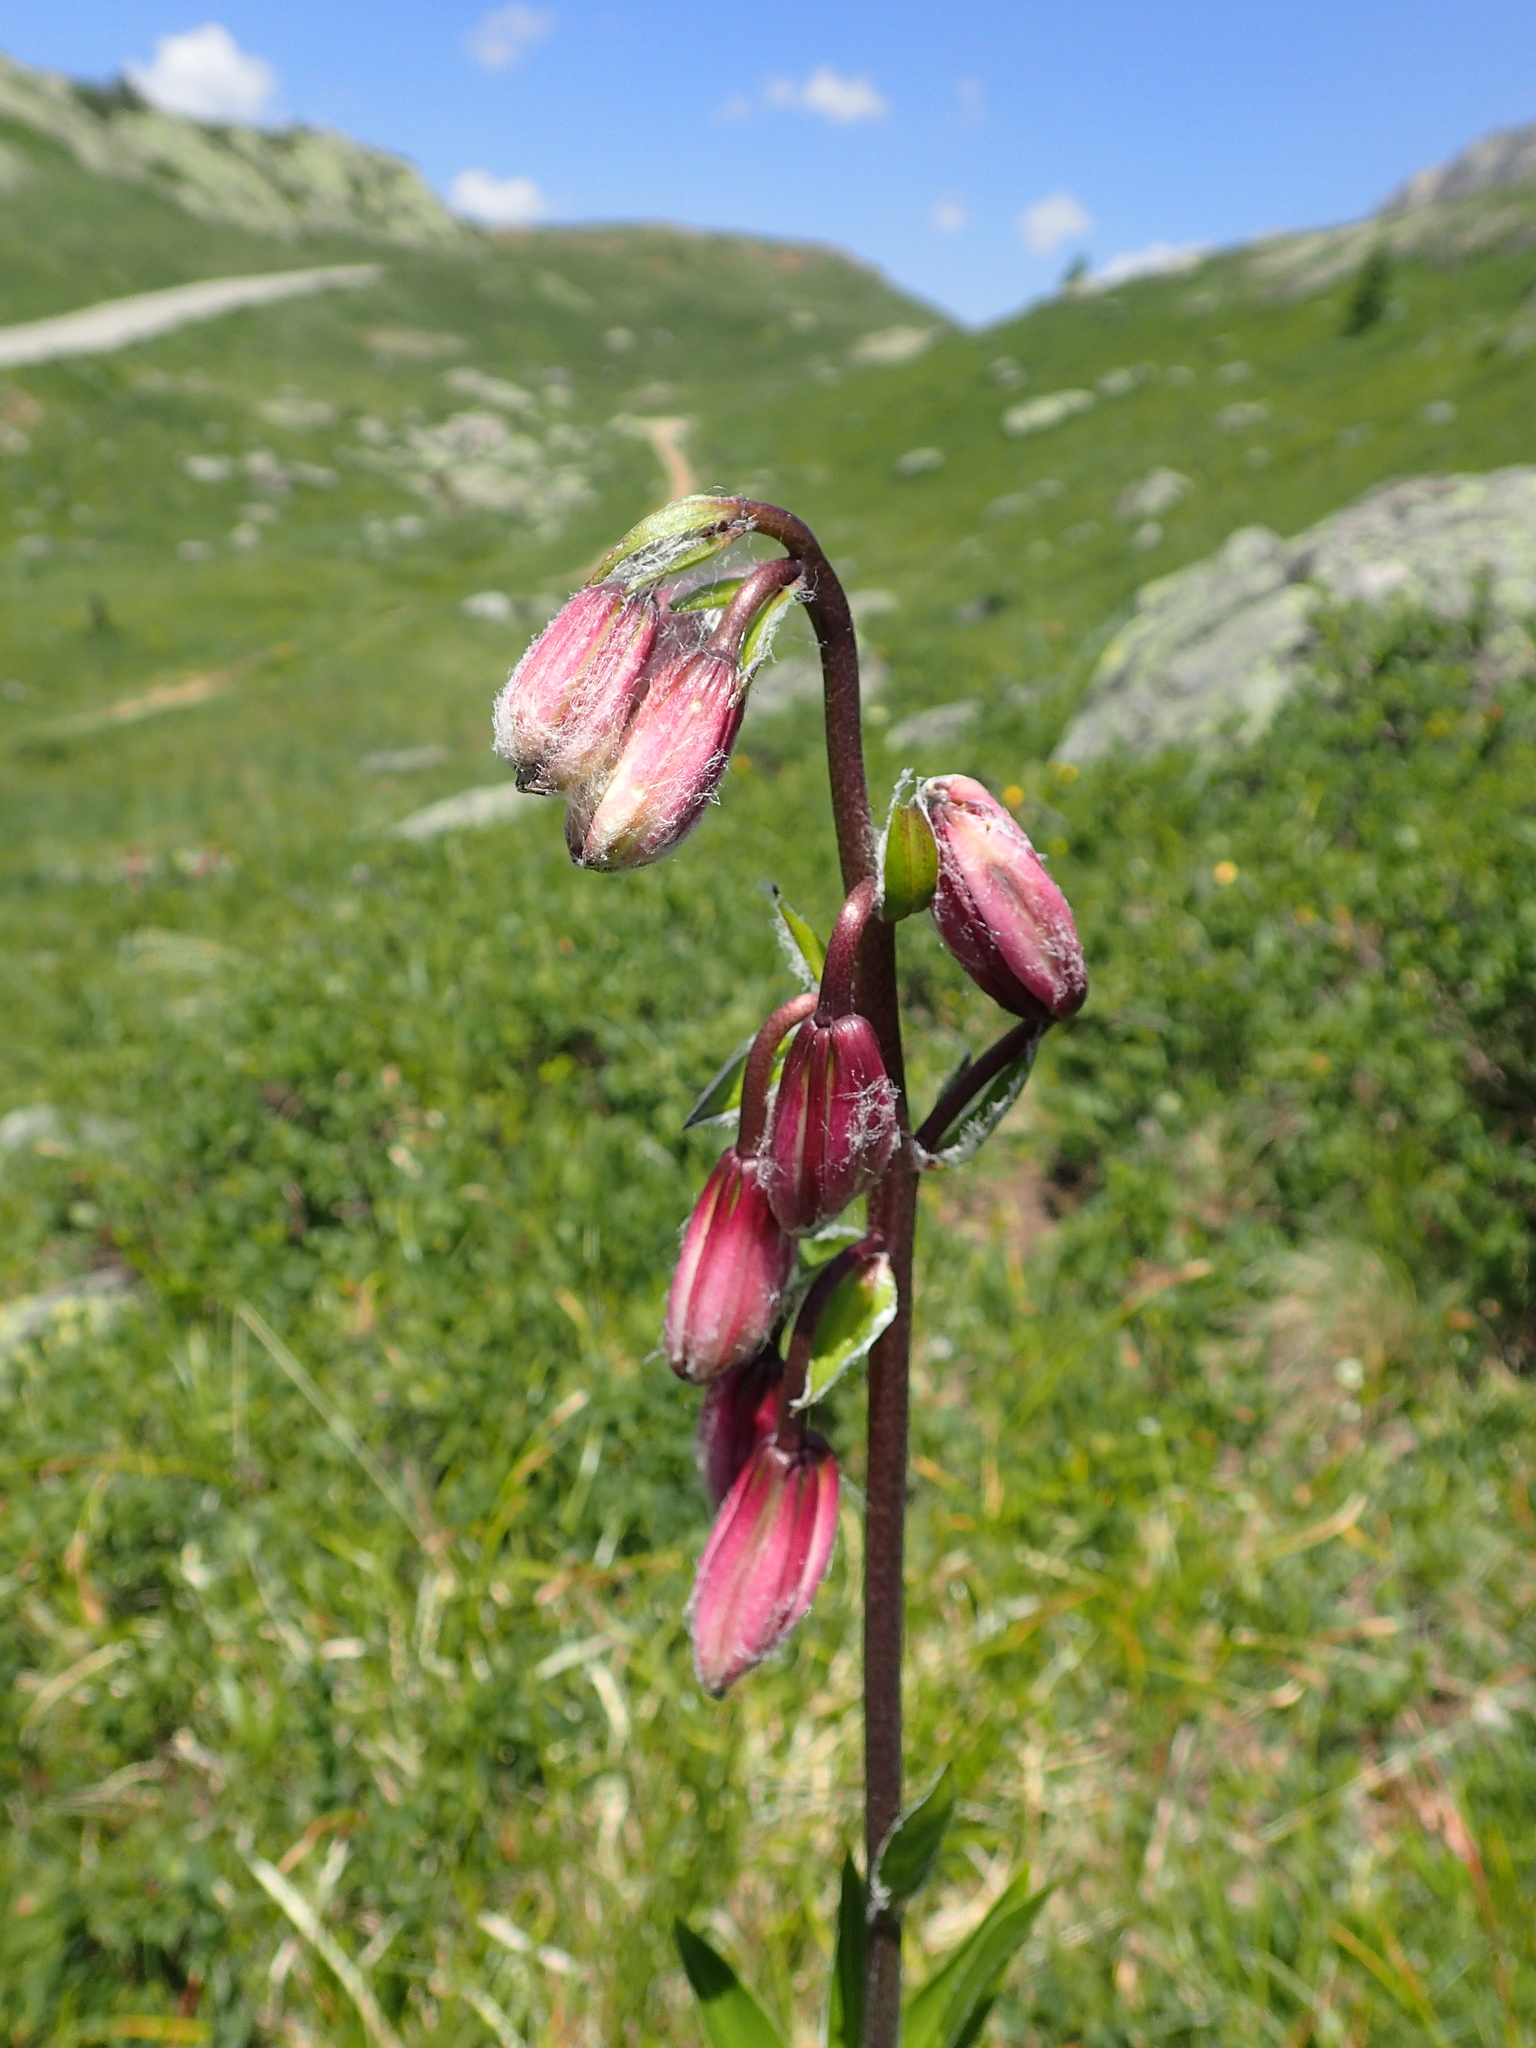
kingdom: Plantae
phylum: Tracheophyta
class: Liliopsida
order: Liliales
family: Liliaceae
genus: Lilium
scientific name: Lilium martagon
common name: Martagon lily
